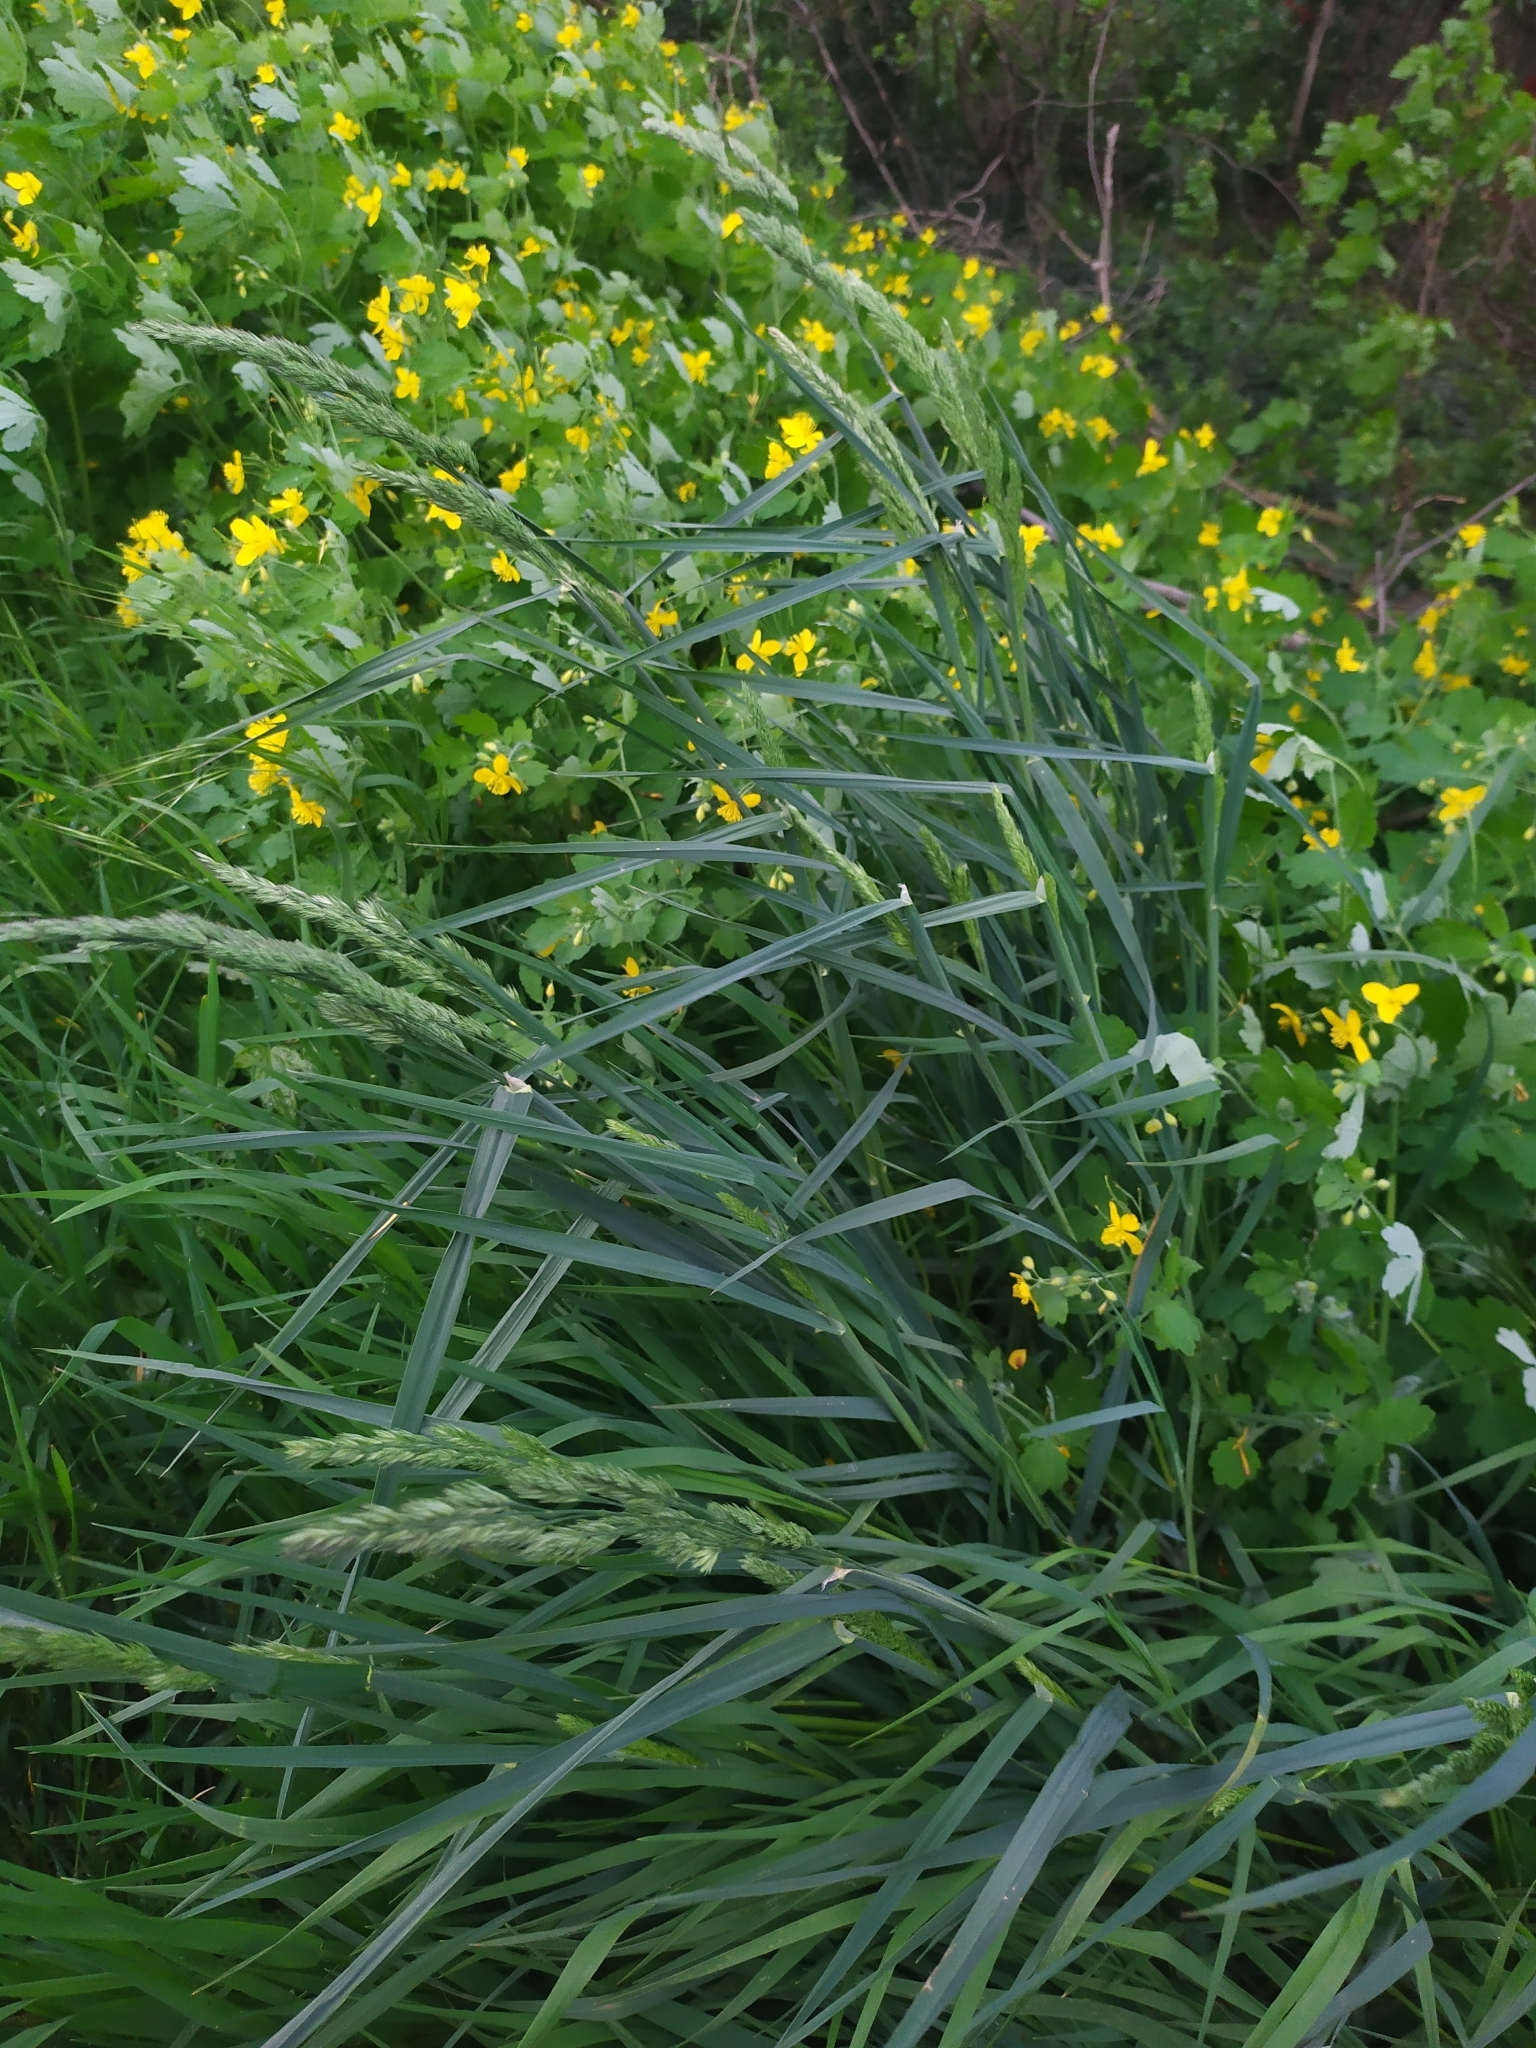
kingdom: Plantae
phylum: Tracheophyta
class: Liliopsida
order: Poales
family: Poaceae
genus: Dactylis
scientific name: Dactylis glomerata
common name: Orchardgrass
